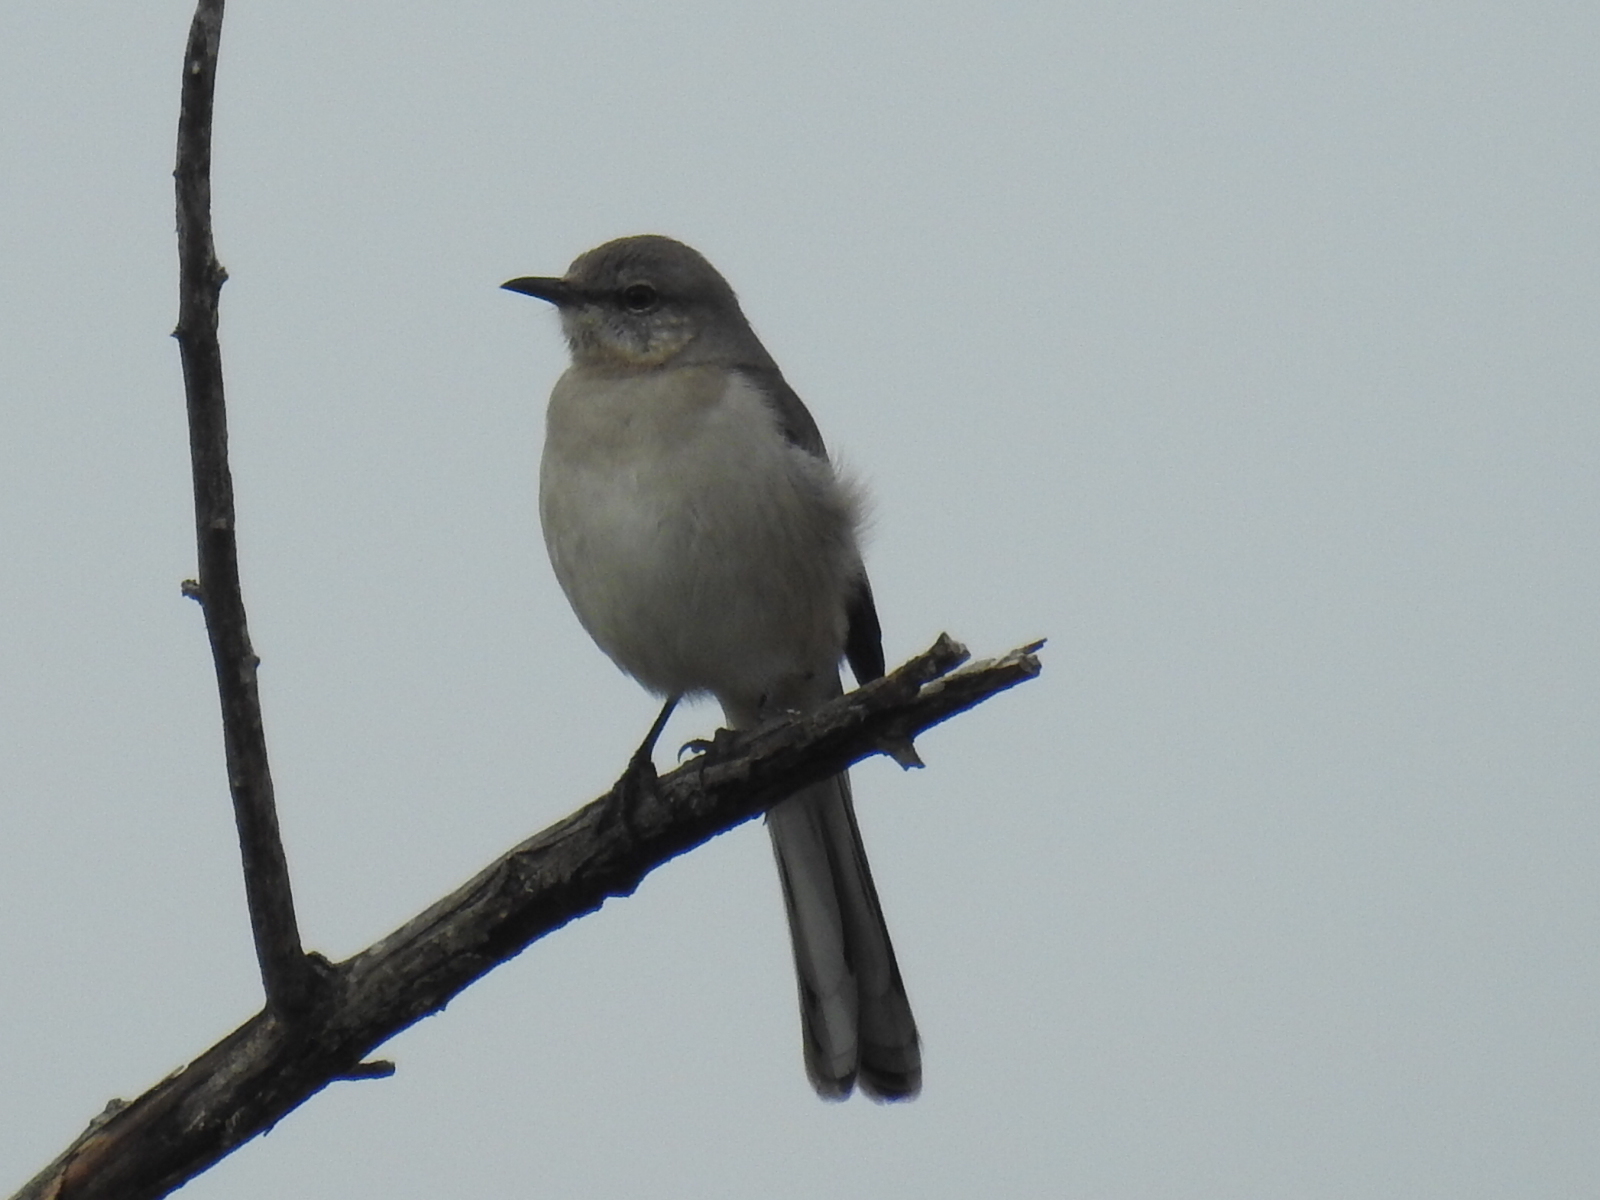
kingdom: Animalia
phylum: Chordata
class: Aves
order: Passeriformes
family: Mimidae
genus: Mimus
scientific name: Mimus polyglottos
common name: Northern mockingbird
